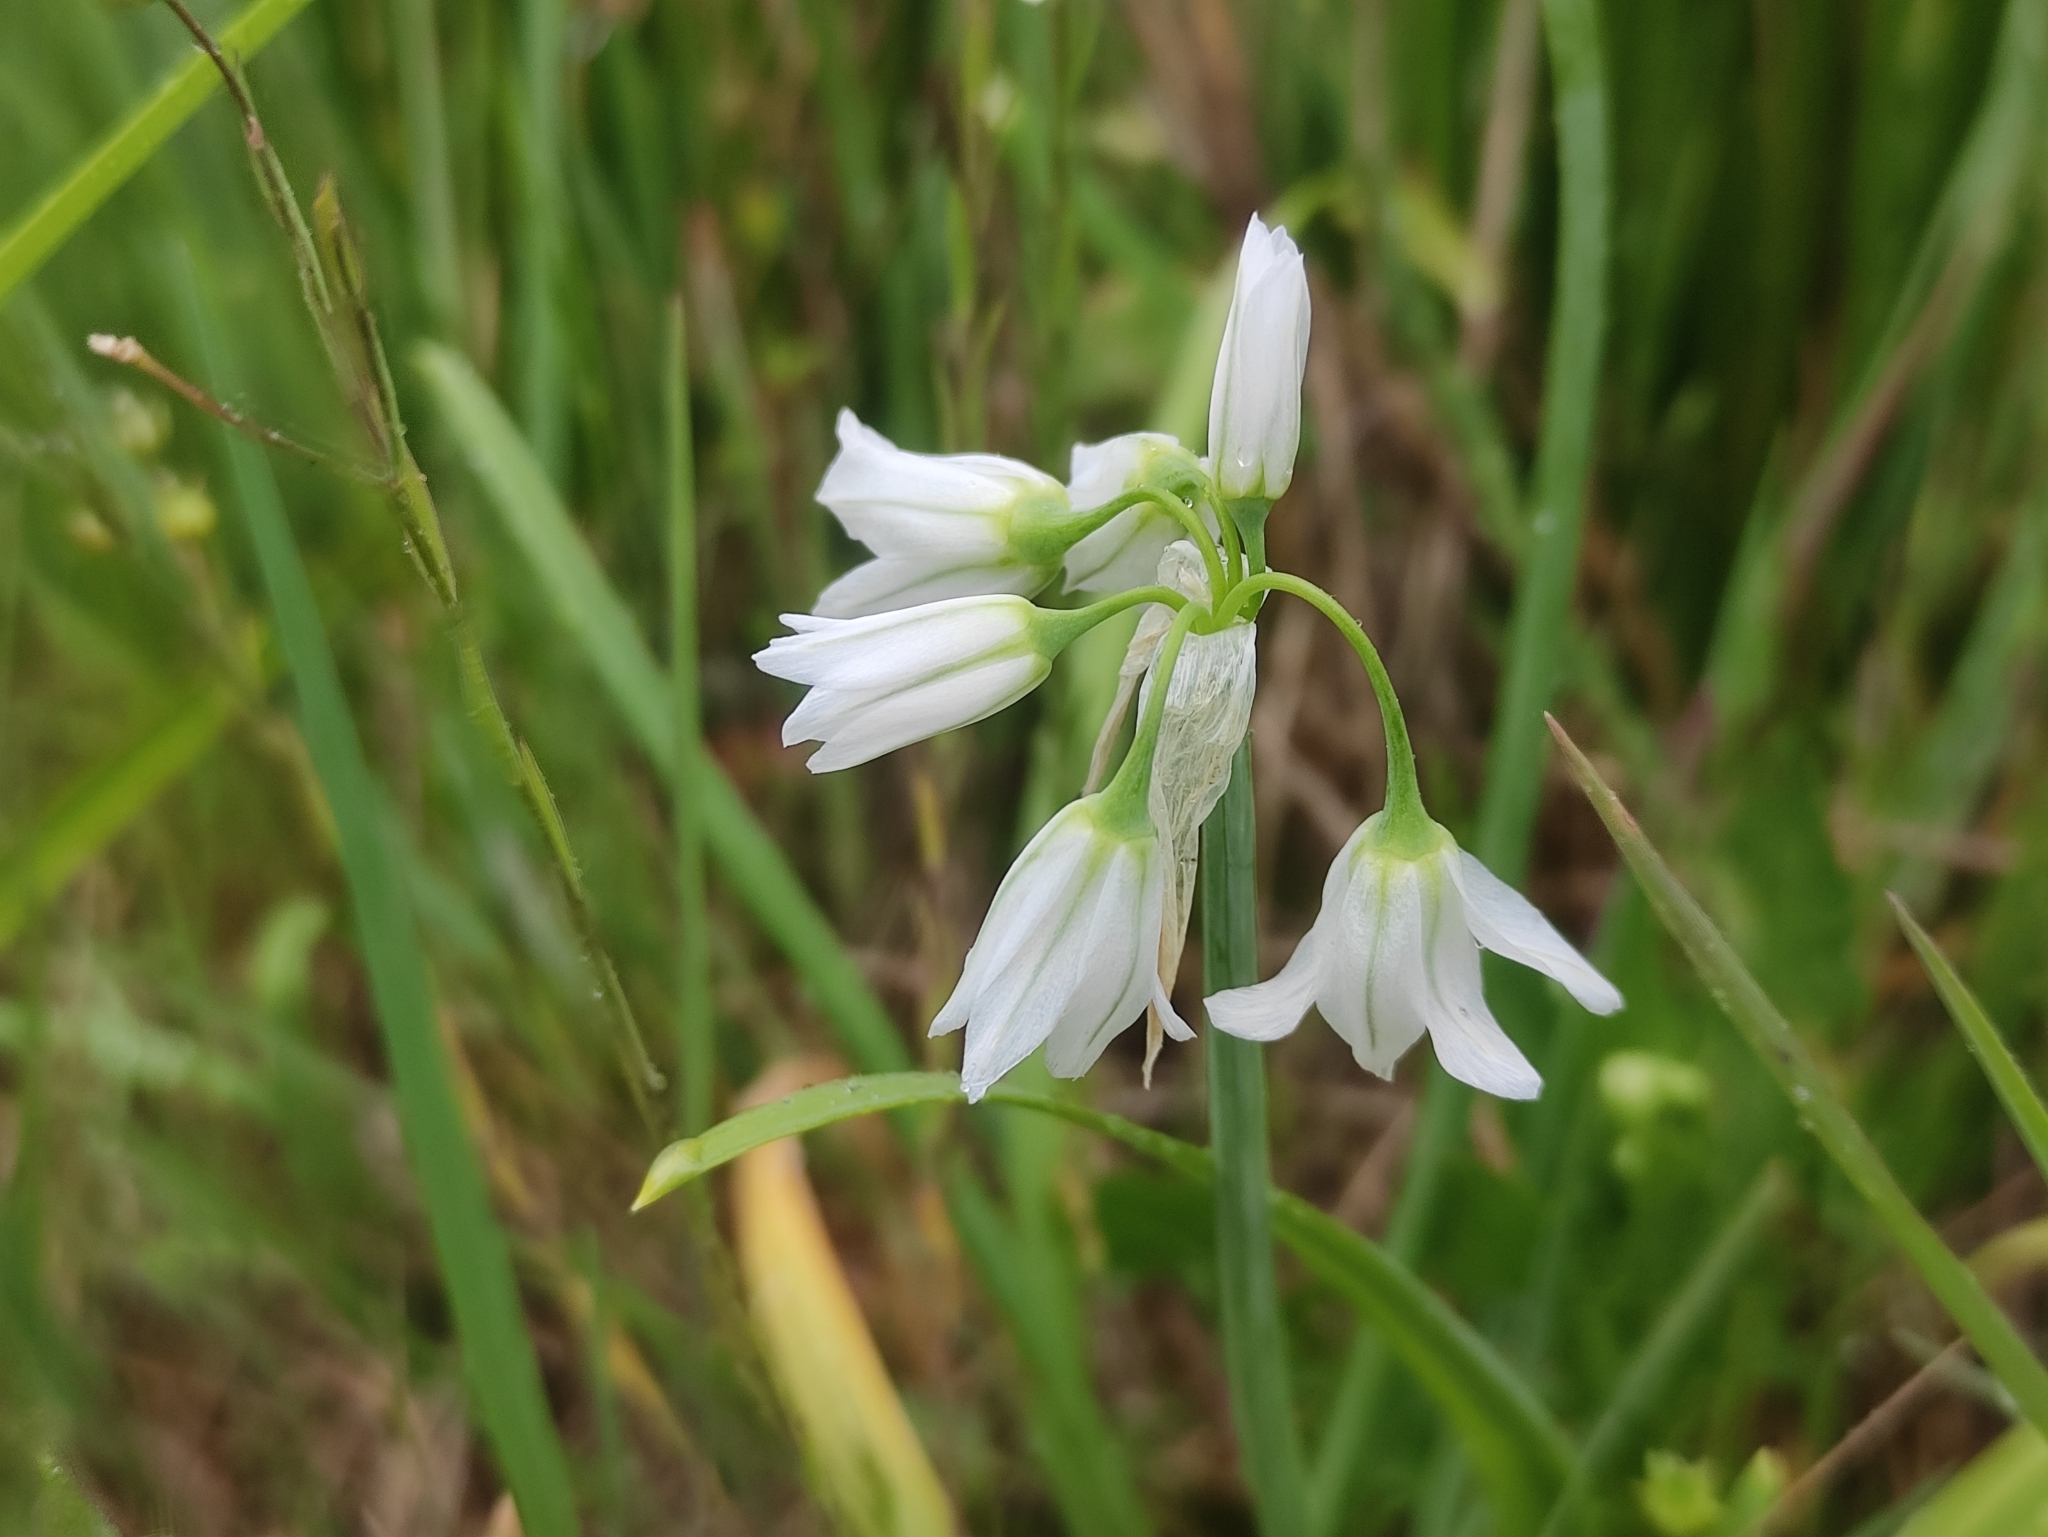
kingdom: Plantae
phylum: Tracheophyta
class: Liliopsida
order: Asparagales
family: Amaryllidaceae
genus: Allium
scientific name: Allium triquetrum
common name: Three-cornered garlic
